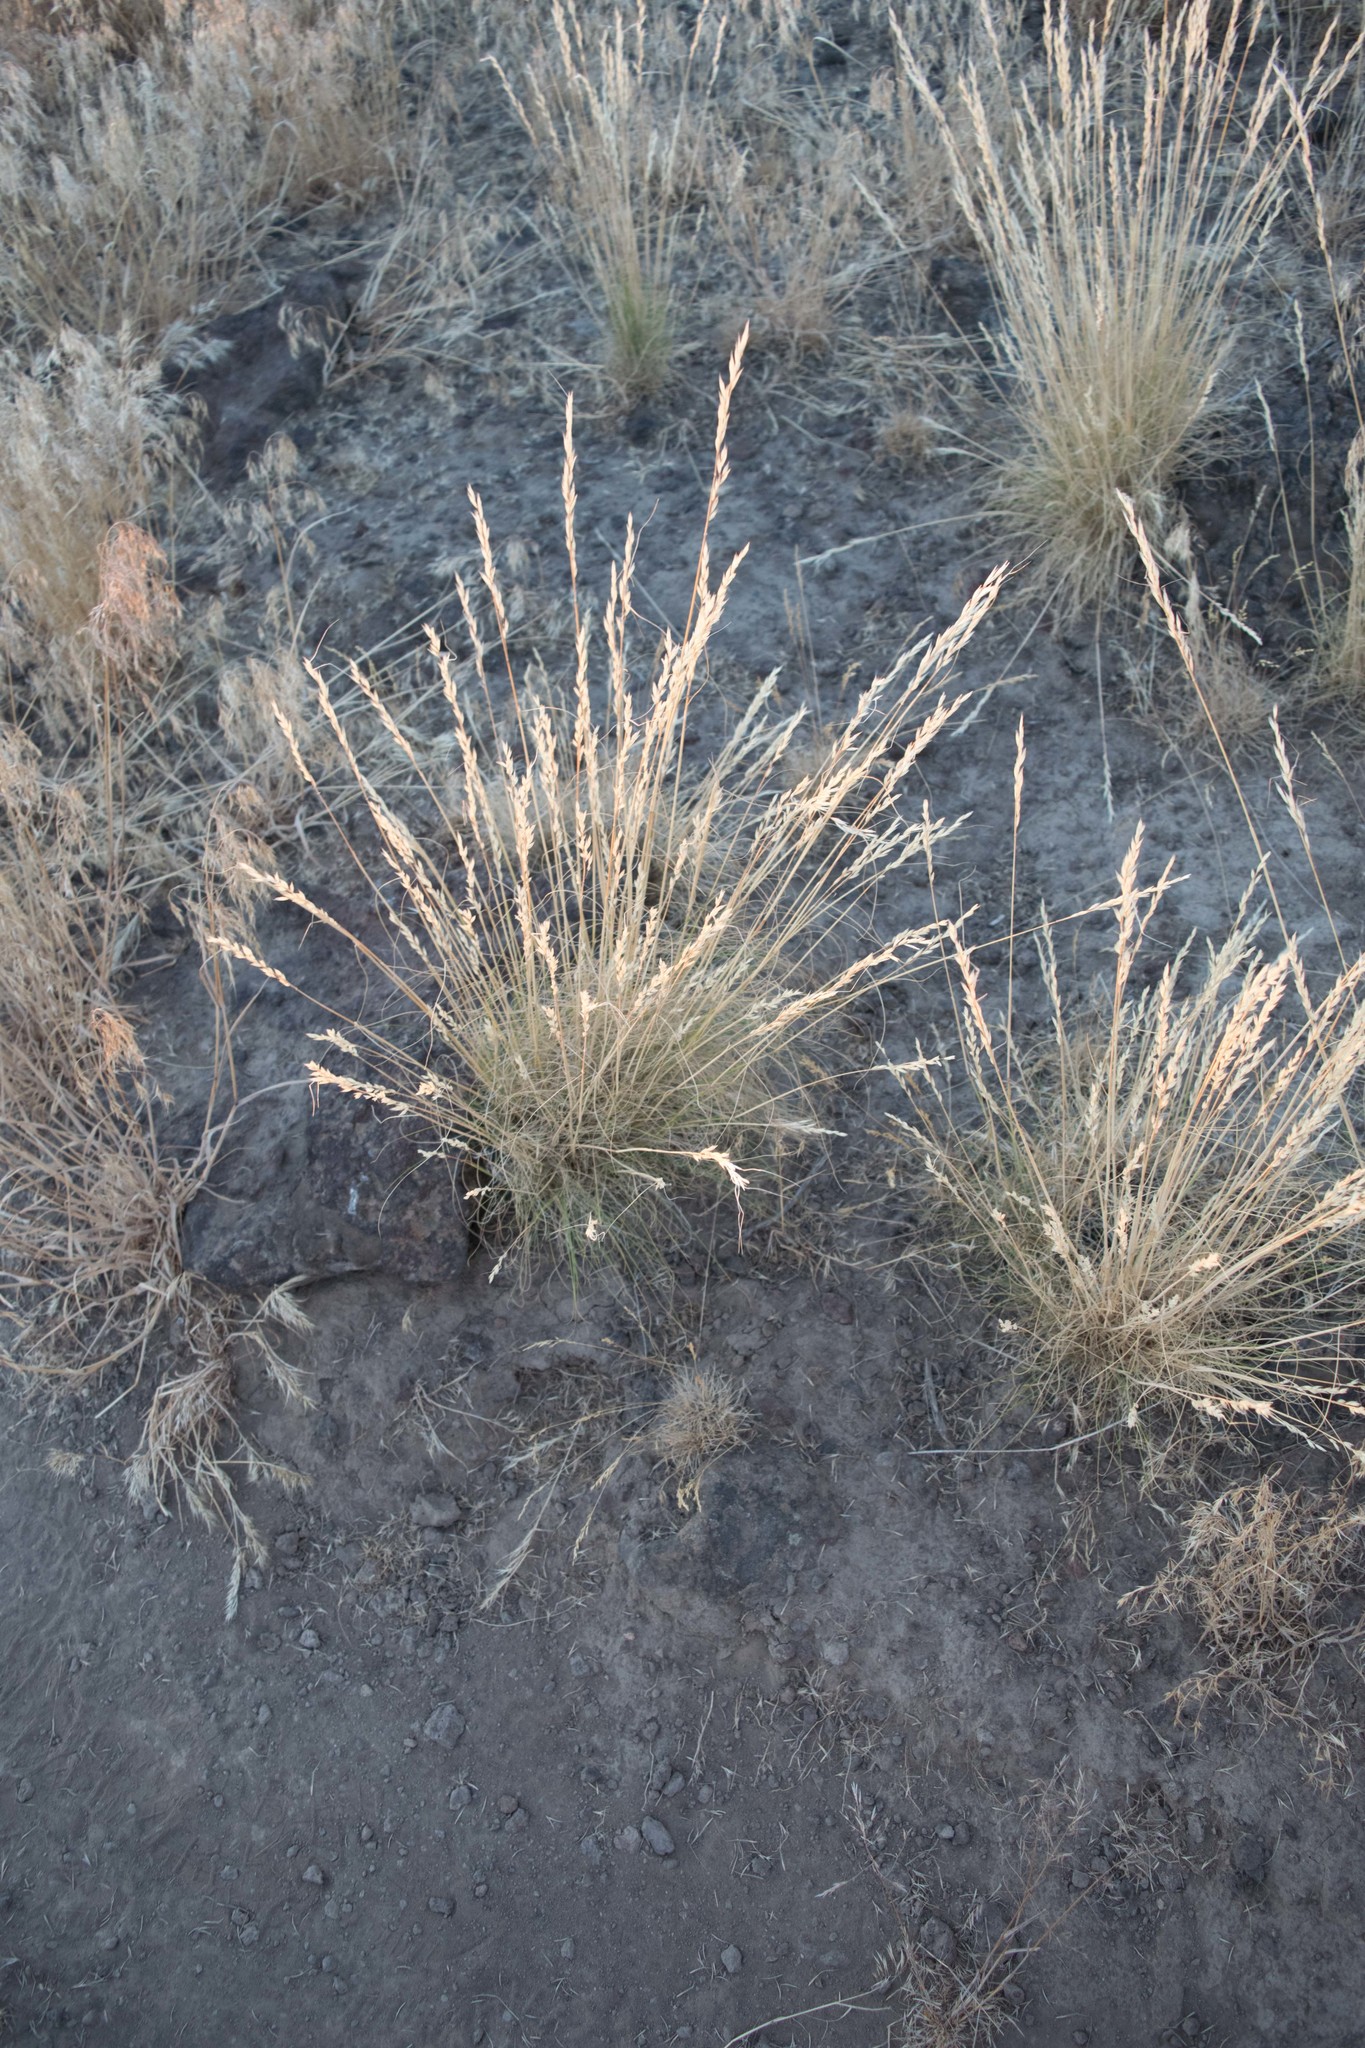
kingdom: Plantae
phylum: Tracheophyta
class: Liliopsida
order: Poales
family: Poaceae
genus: Poa
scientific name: Poa secunda
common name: Sandberg bluegrass
